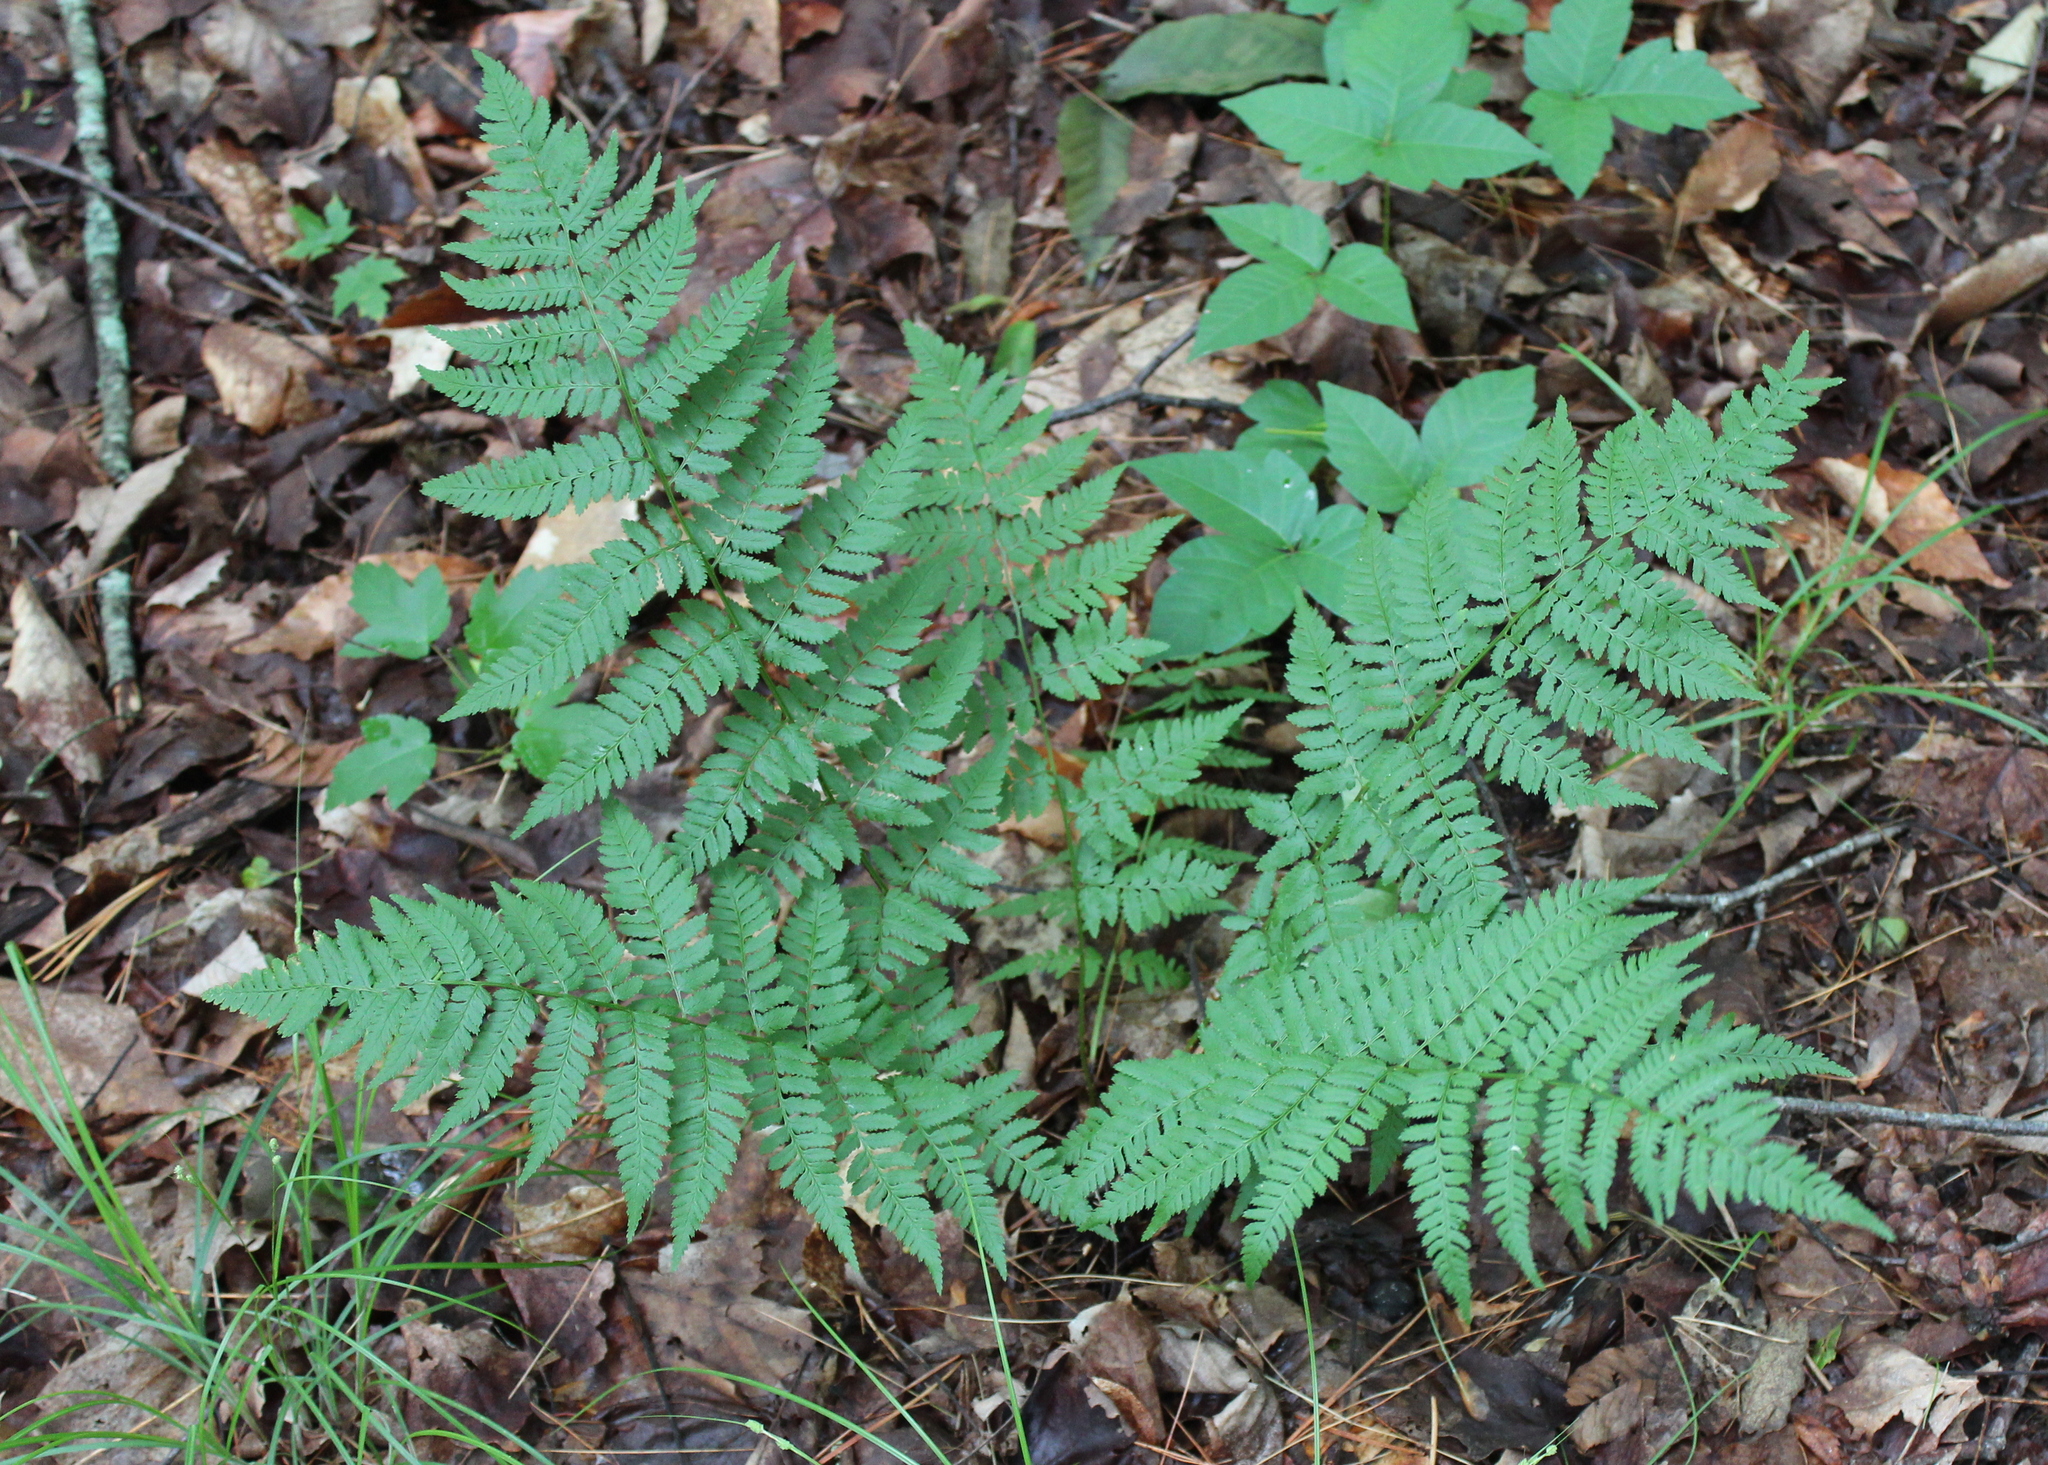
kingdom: Plantae
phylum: Tracheophyta
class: Polypodiopsida
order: Polypodiales
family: Dryopteridaceae
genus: Dryopteris
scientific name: Dryopteris carthusiana
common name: Narrow buckler-fern
